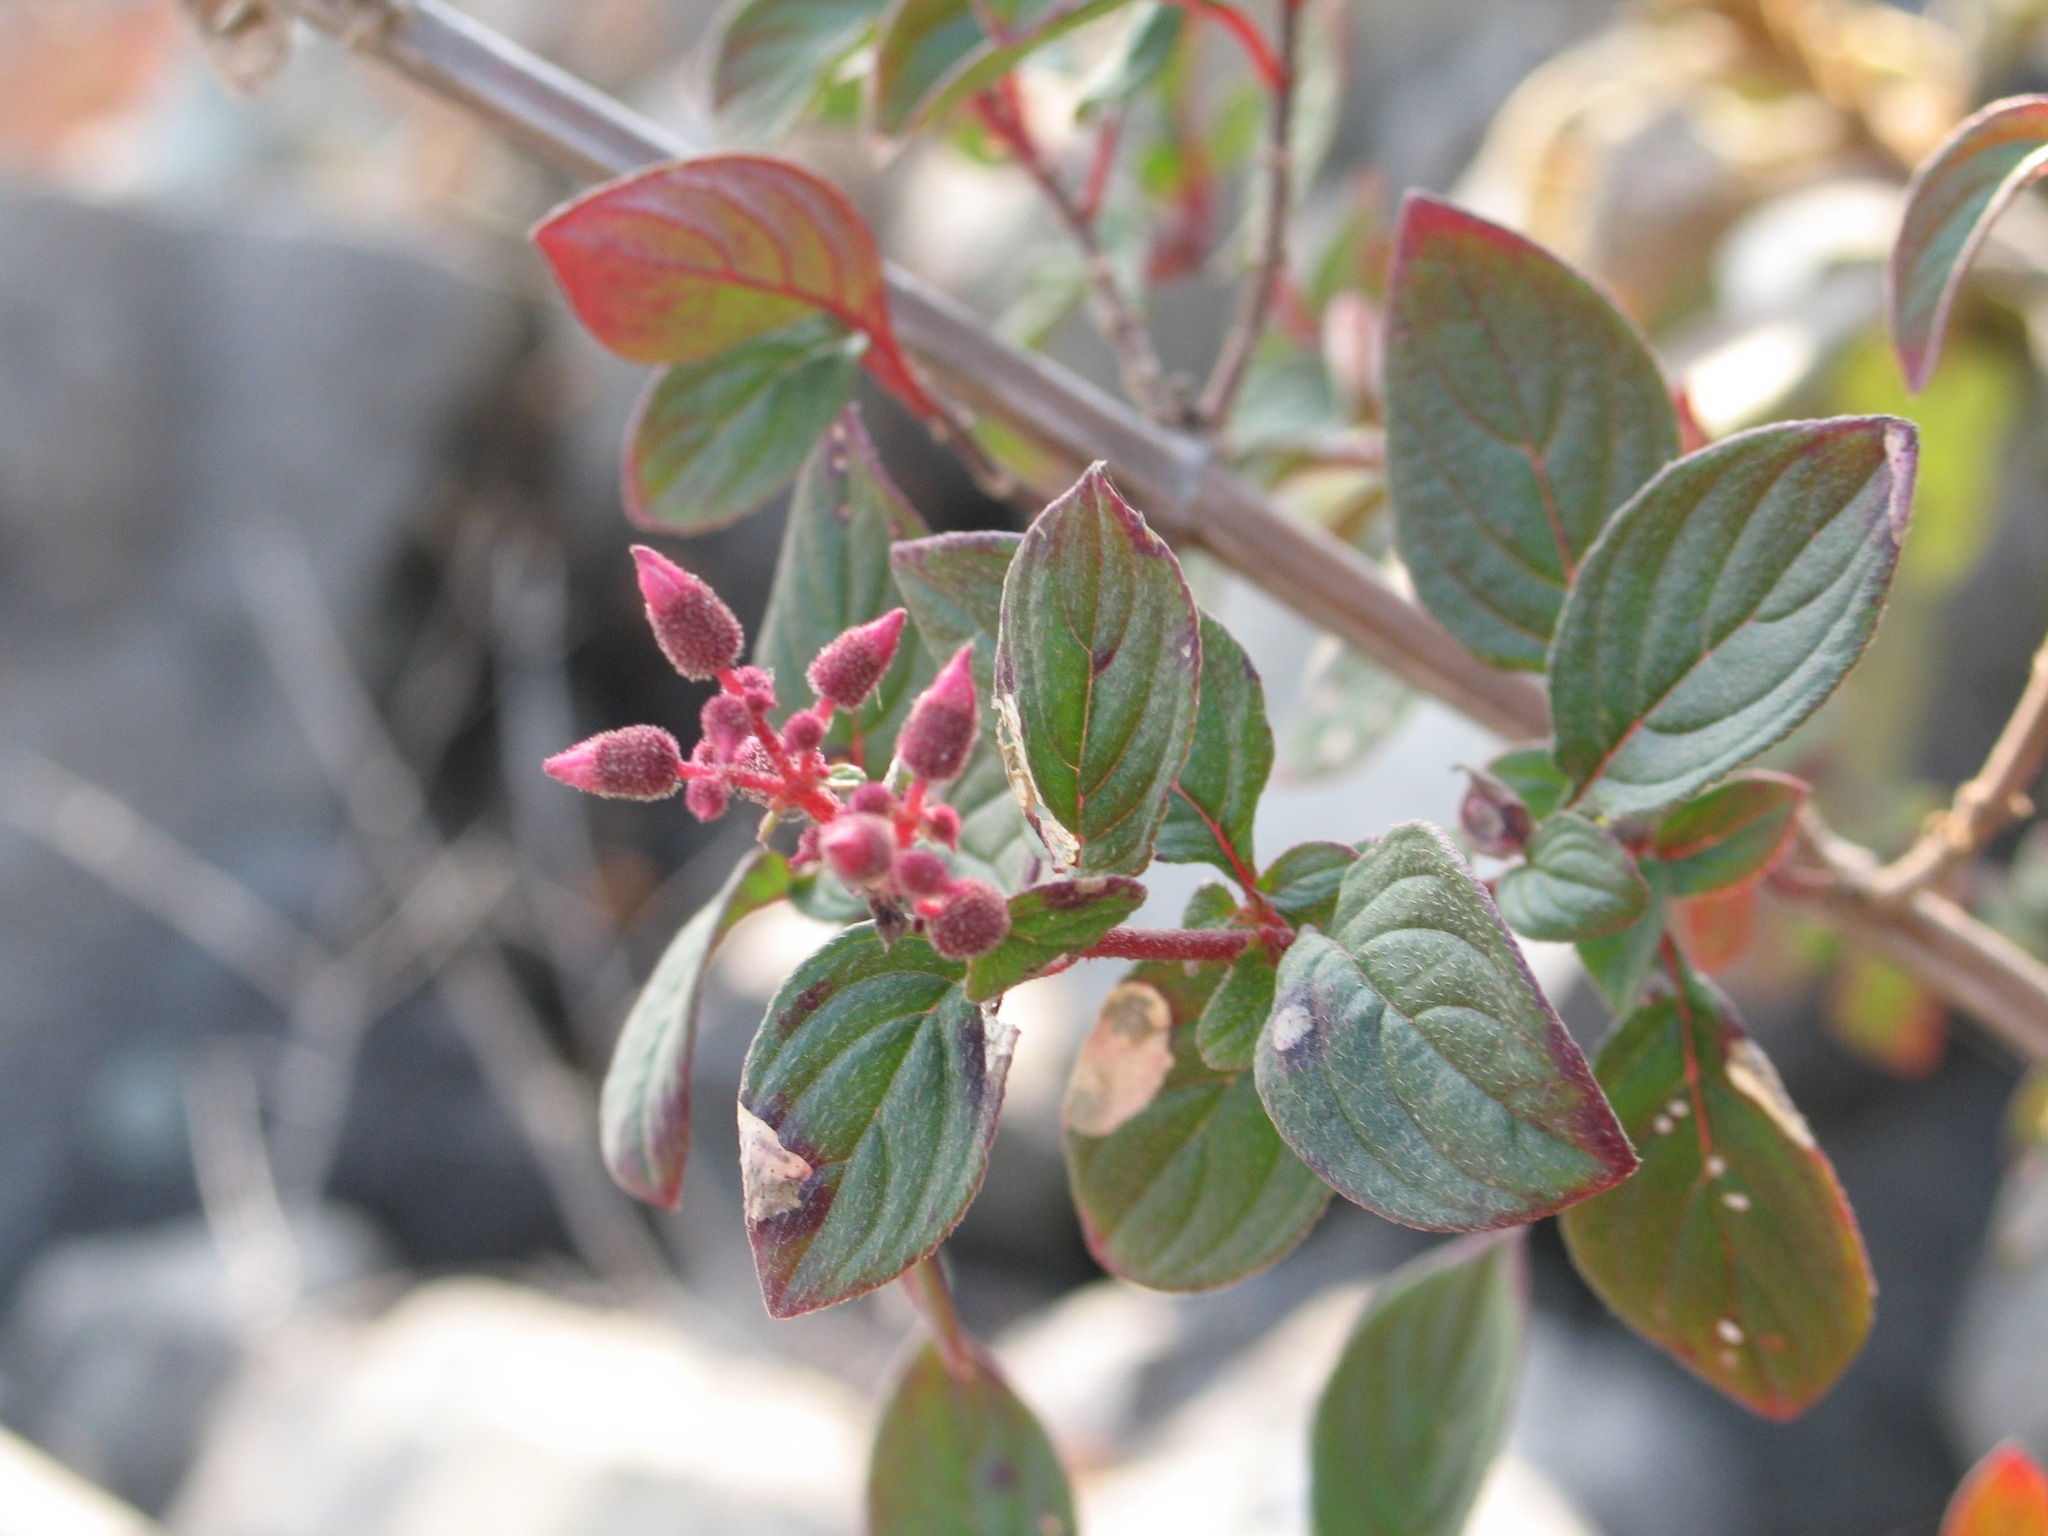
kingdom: Plantae
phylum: Tracheophyta
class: Magnoliopsida
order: Myrtales
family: Melastomataceae
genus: Heterocentron
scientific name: Heterocentron subtriplinervium
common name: Pearl flower
